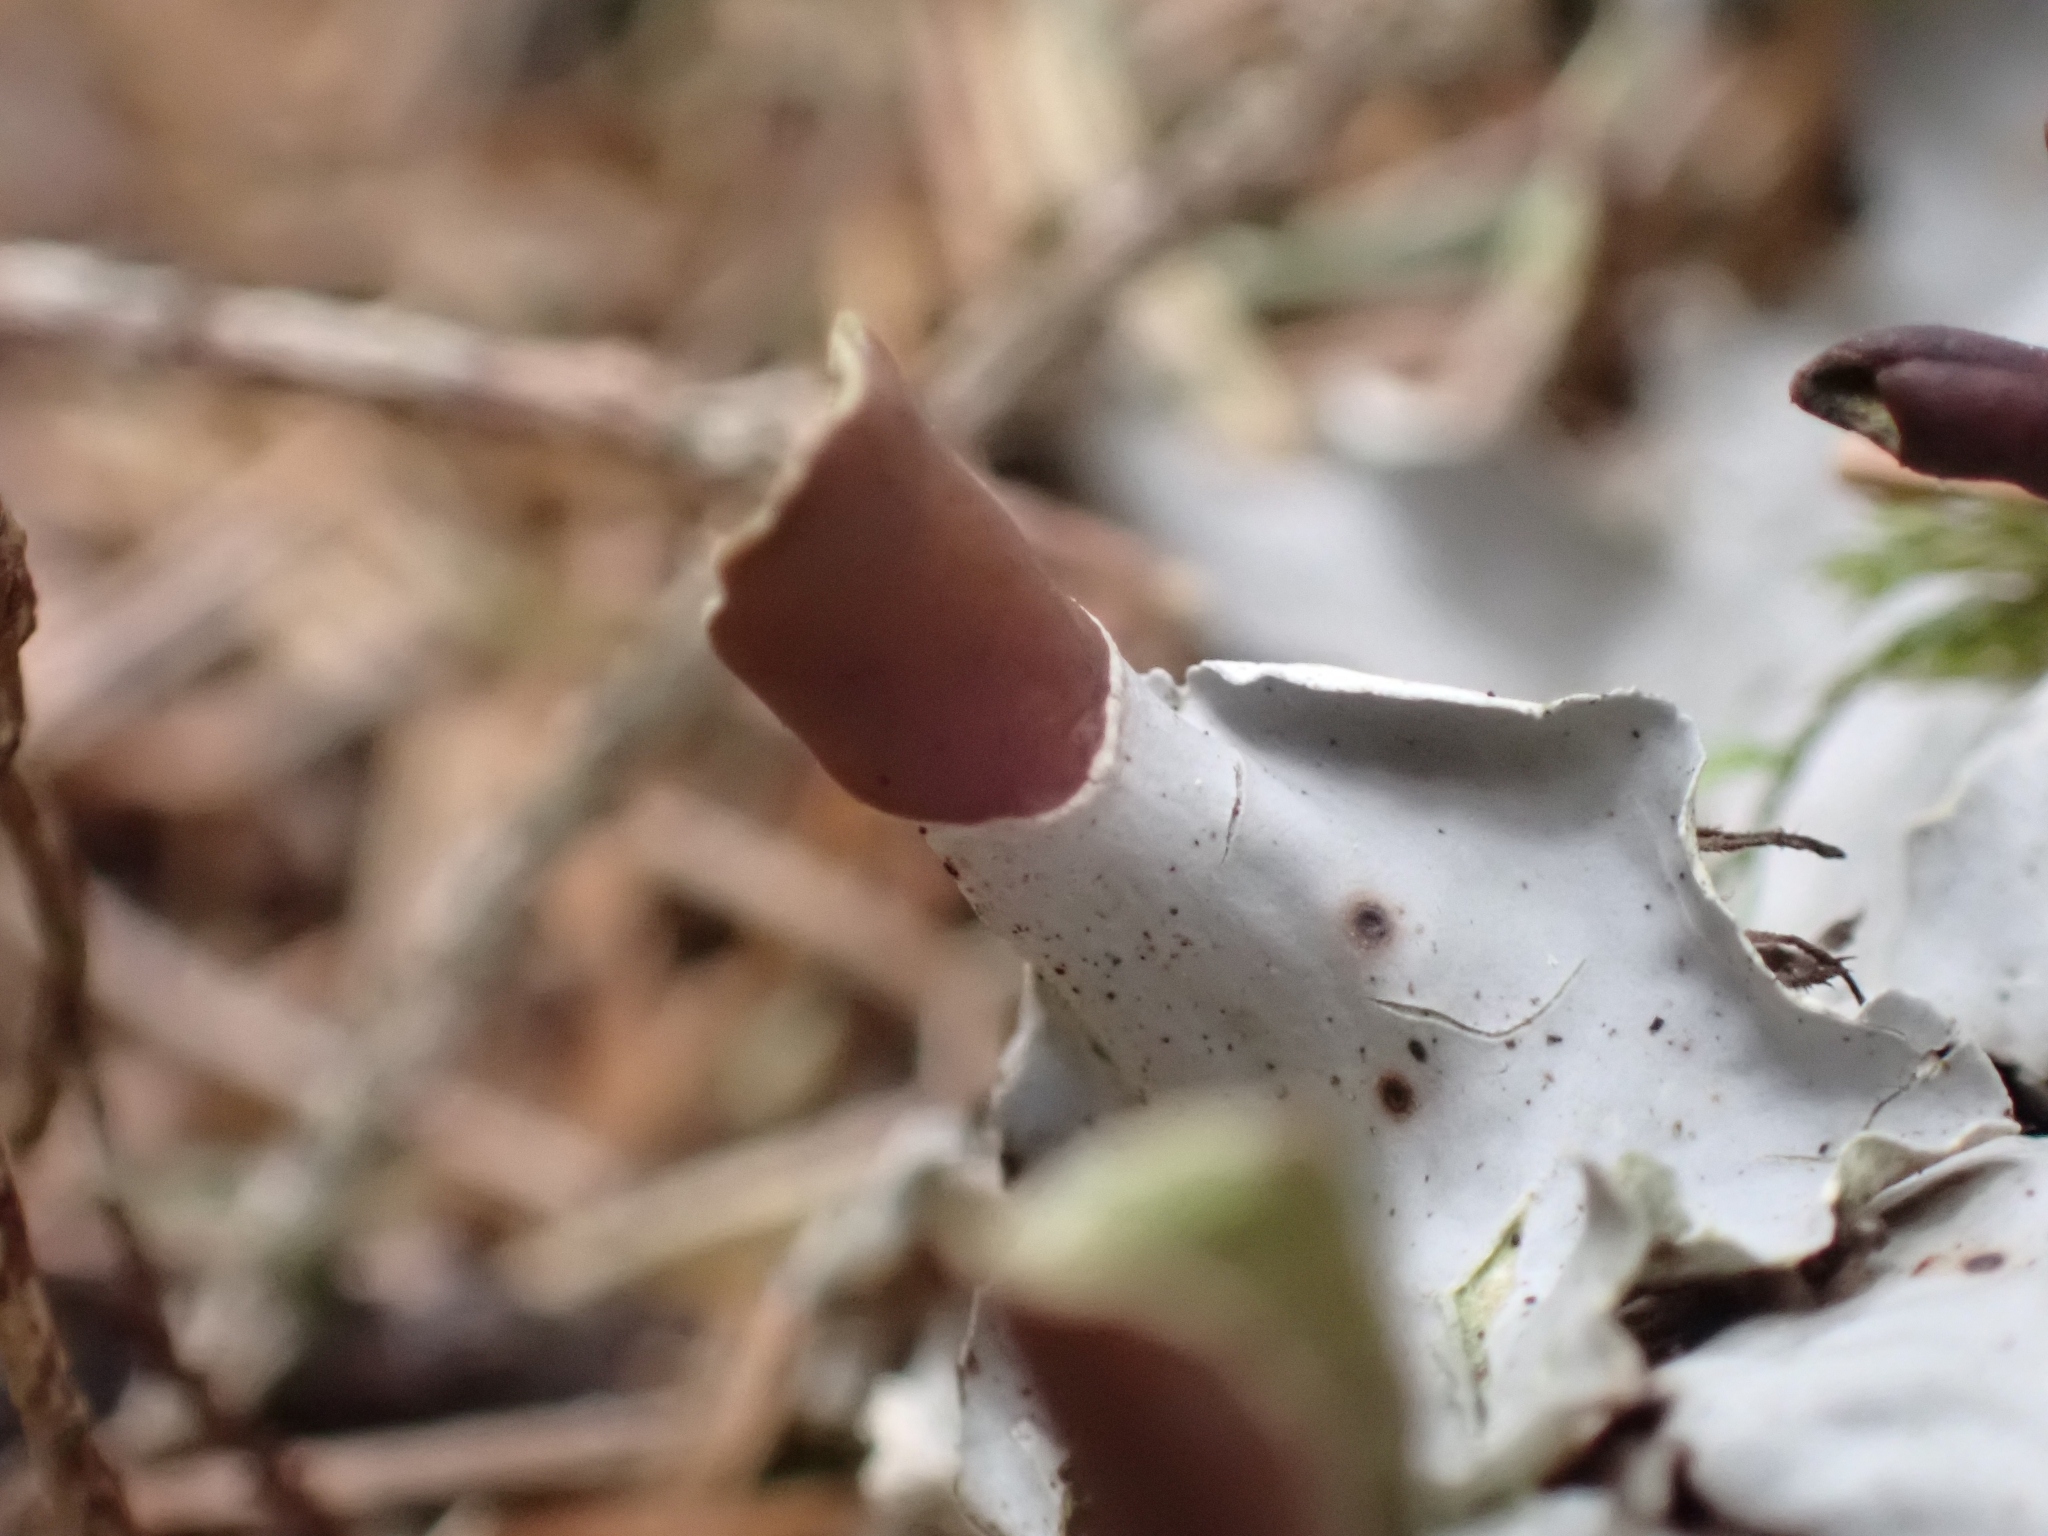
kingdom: Fungi
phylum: Ascomycota
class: Lecanoromycetes
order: Peltigerales
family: Peltigeraceae
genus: Peltigera
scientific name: Peltigera praetextata
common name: Scaly dog-lichen
